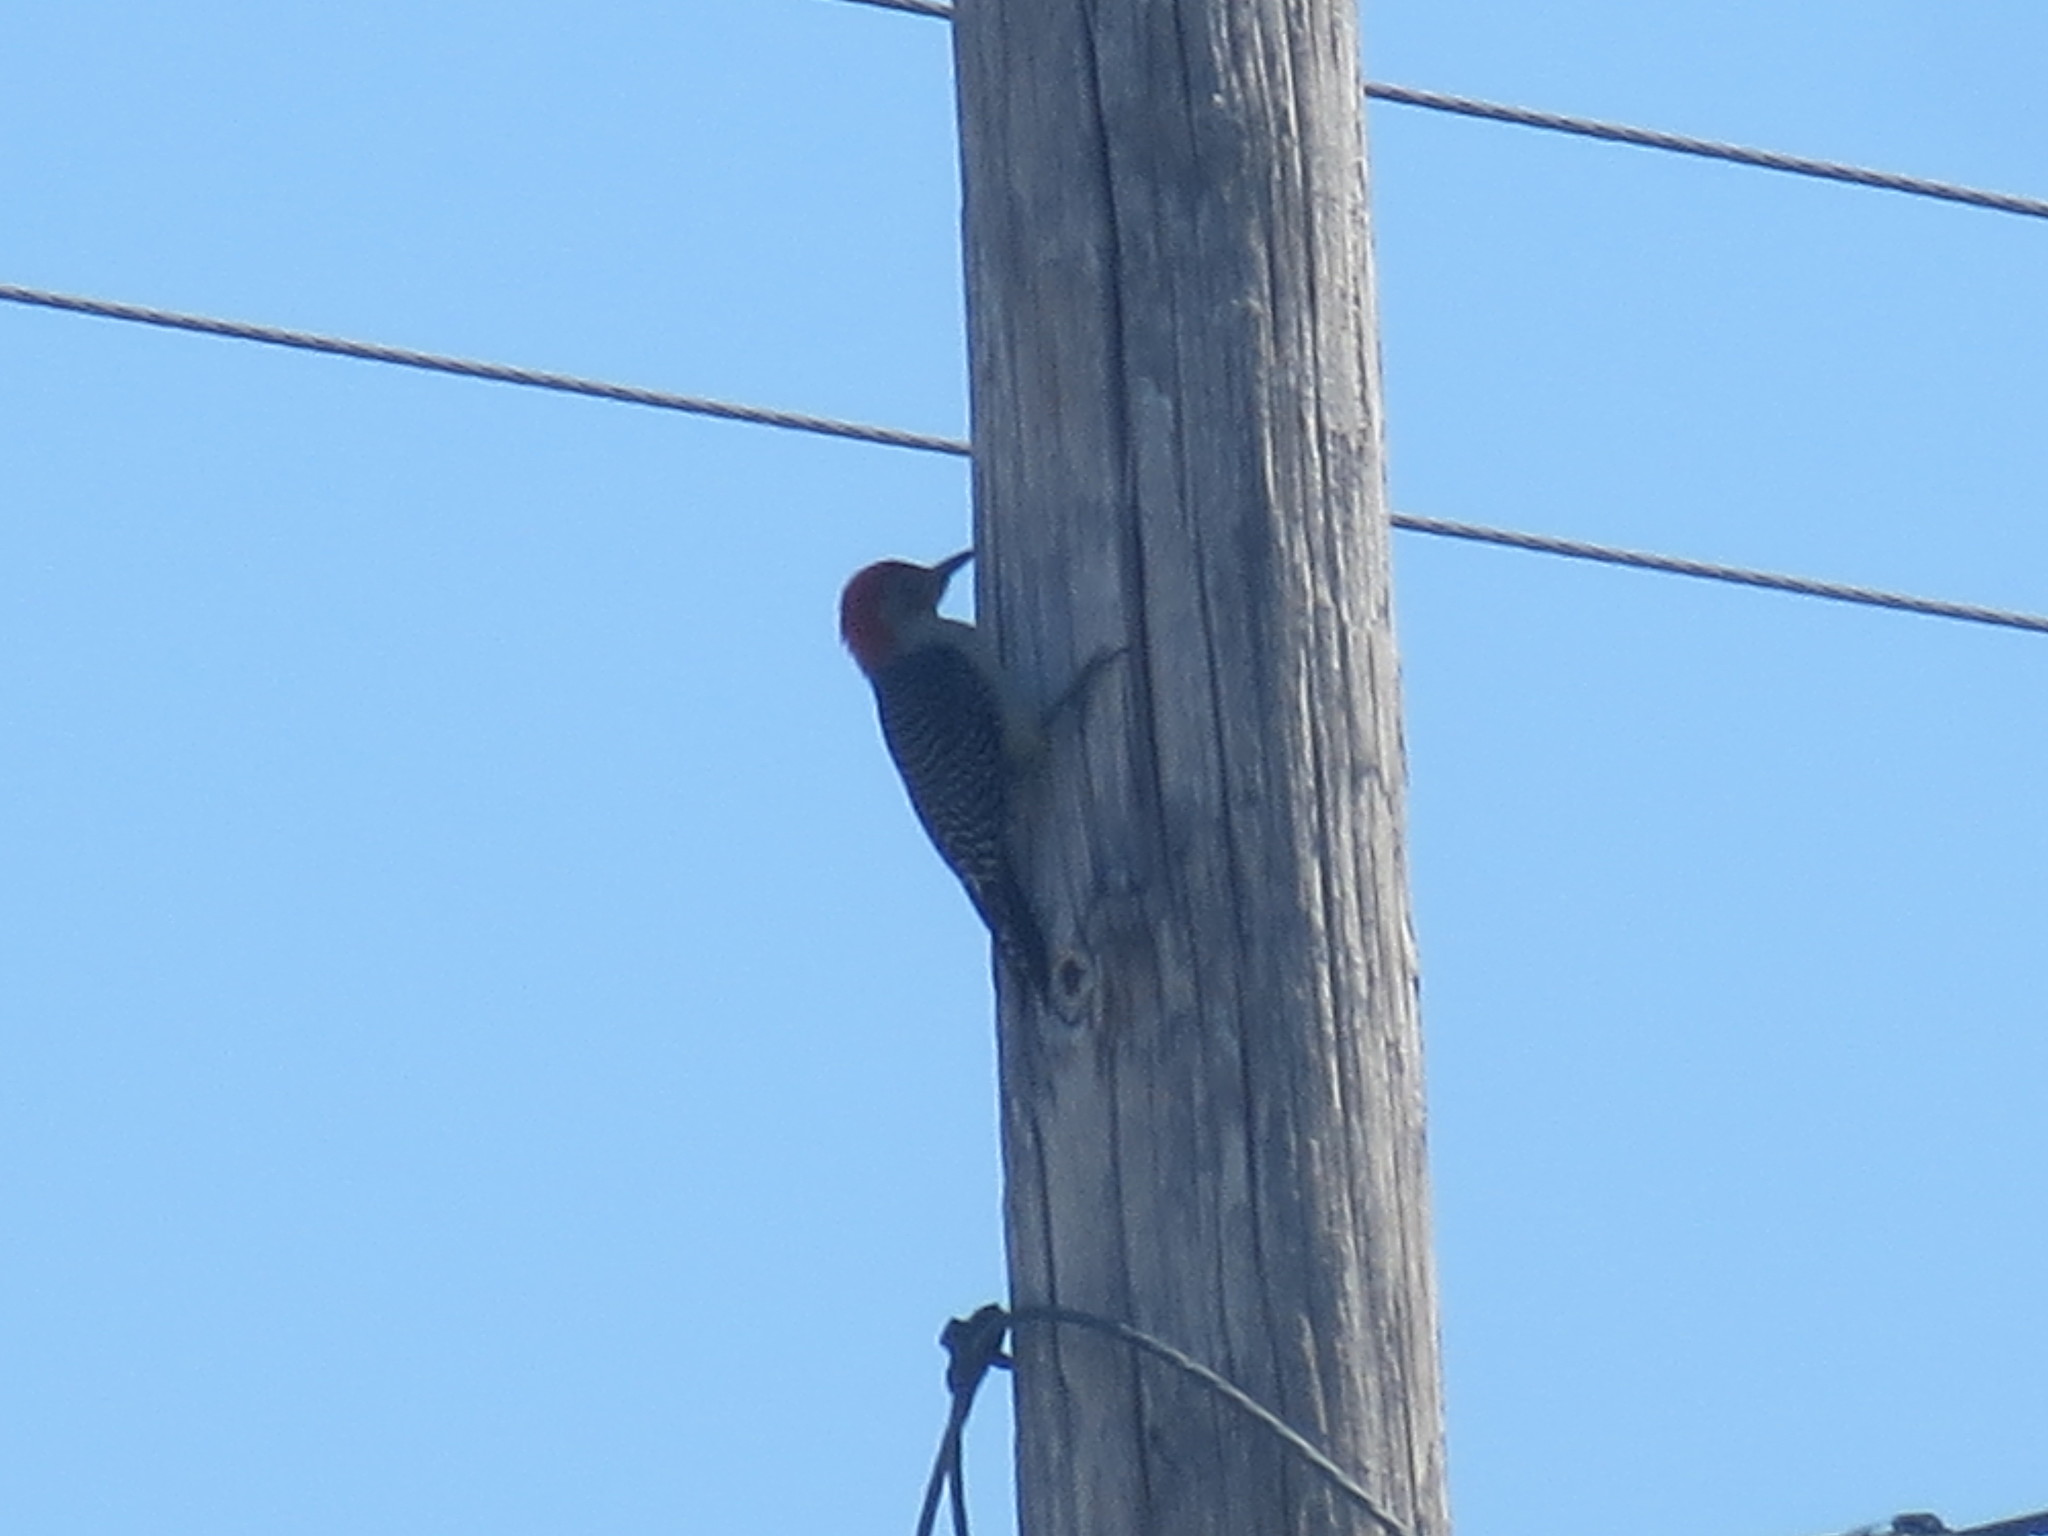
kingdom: Animalia
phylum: Chordata
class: Aves
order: Piciformes
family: Picidae
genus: Melanerpes
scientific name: Melanerpes carolinus
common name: Red-bellied woodpecker
